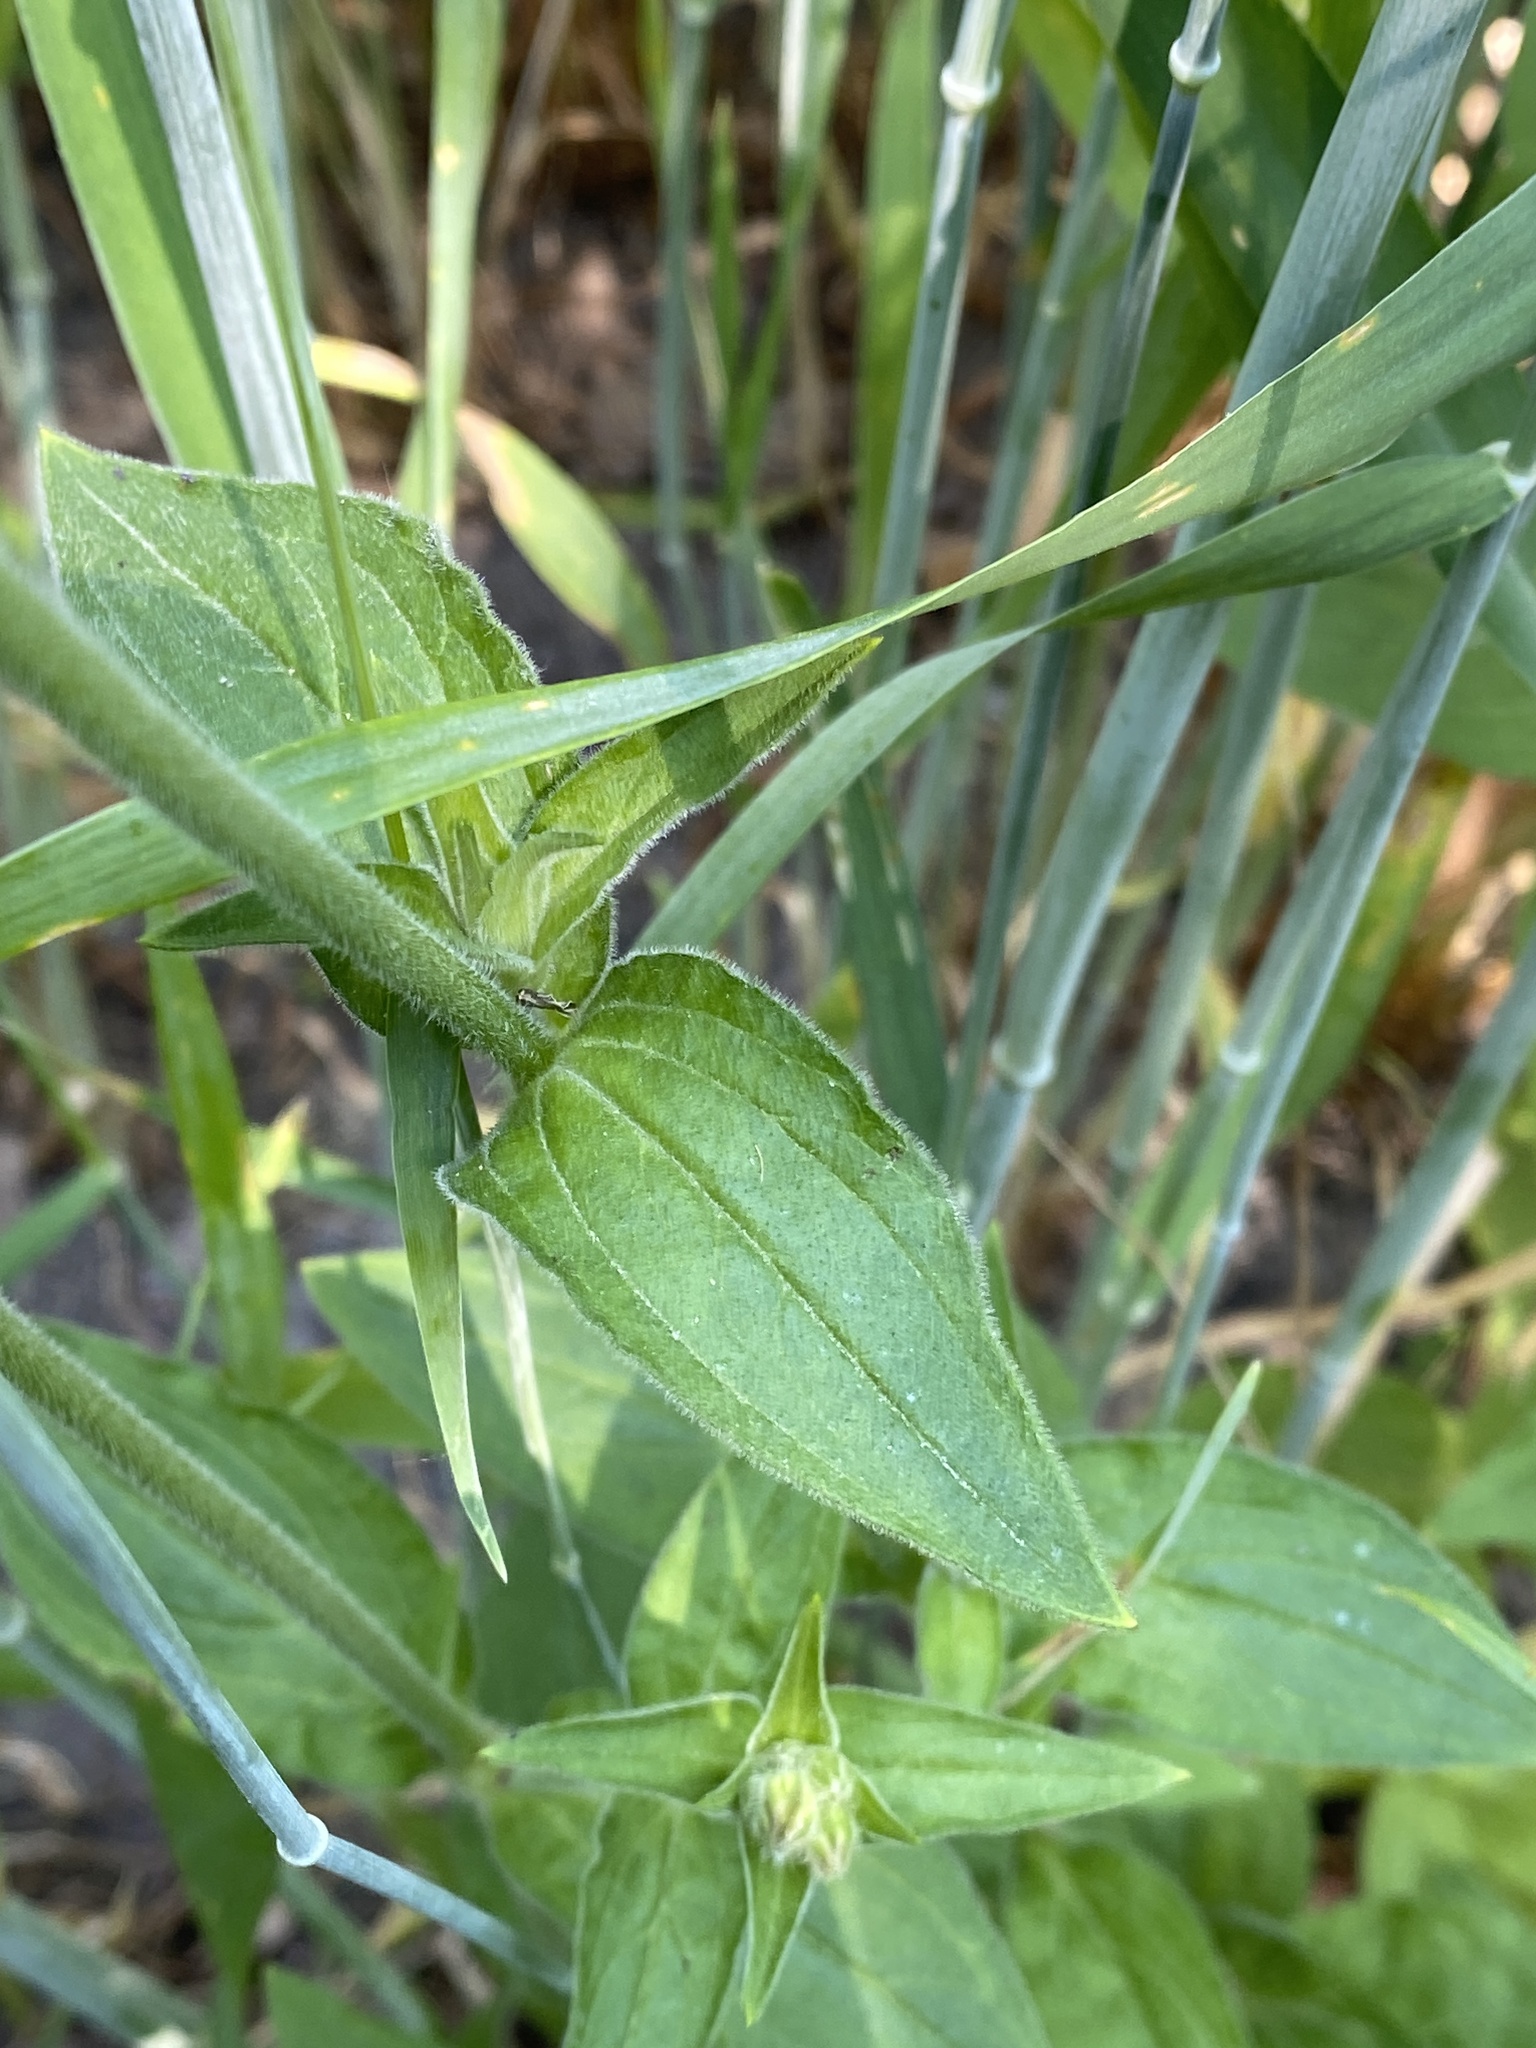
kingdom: Plantae
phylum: Tracheophyta
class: Magnoliopsida
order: Caryophyllales
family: Caryophyllaceae
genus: Silene
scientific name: Silene latifolia
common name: White campion
